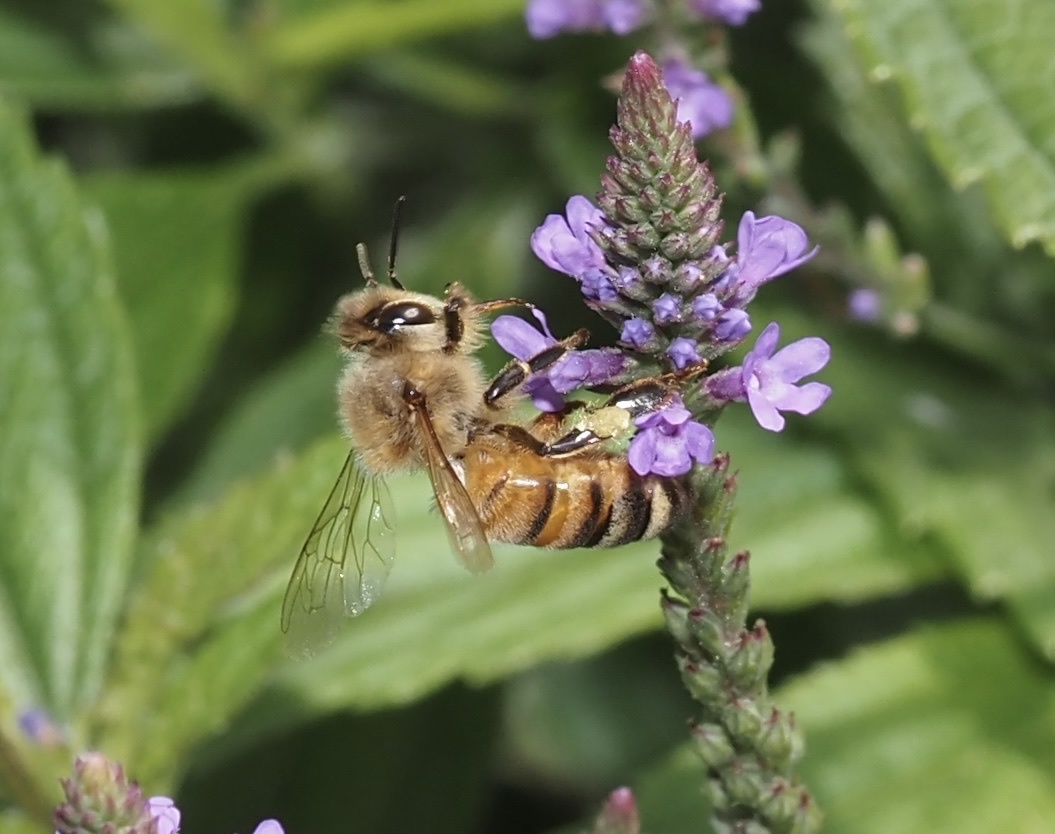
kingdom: Animalia
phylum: Arthropoda
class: Insecta
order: Hymenoptera
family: Apidae
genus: Apis
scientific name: Apis mellifera
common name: Honey bee
